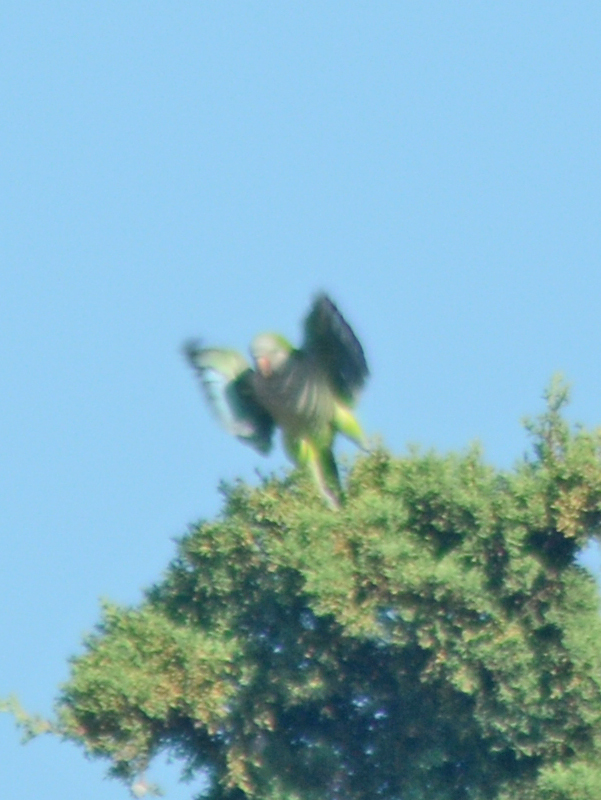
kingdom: Animalia
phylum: Chordata
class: Aves
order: Psittaciformes
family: Psittacidae
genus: Myiopsitta
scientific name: Myiopsitta monachus
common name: Monk parakeet
